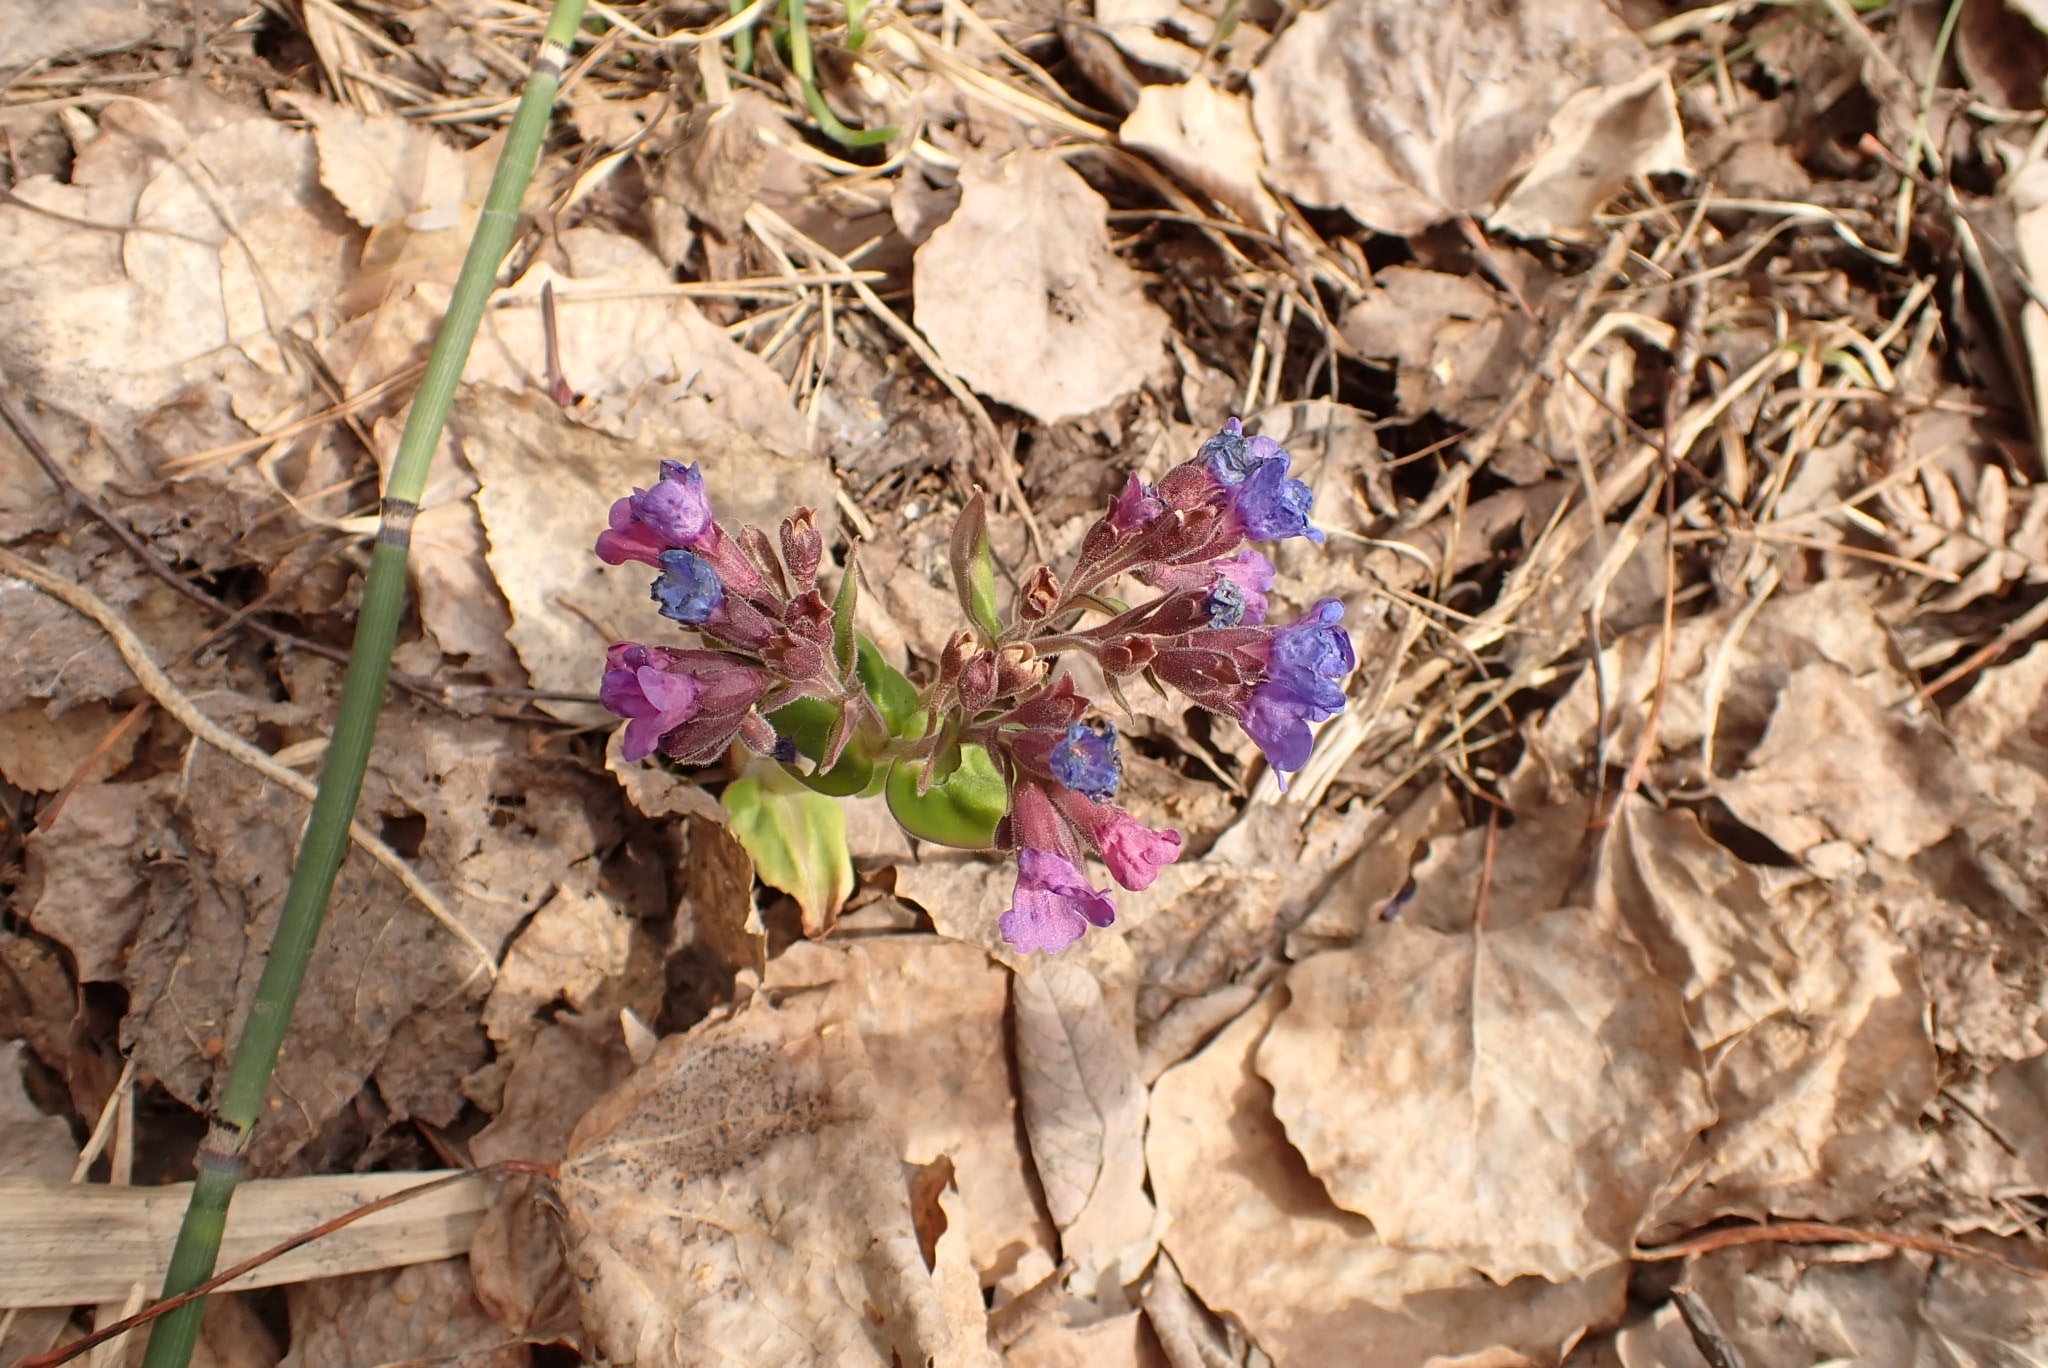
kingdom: Plantae
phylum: Tracheophyta
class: Magnoliopsida
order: Boraginales
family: Boraginaceae
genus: Pulmonaria
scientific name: Pulmonaria mollis
